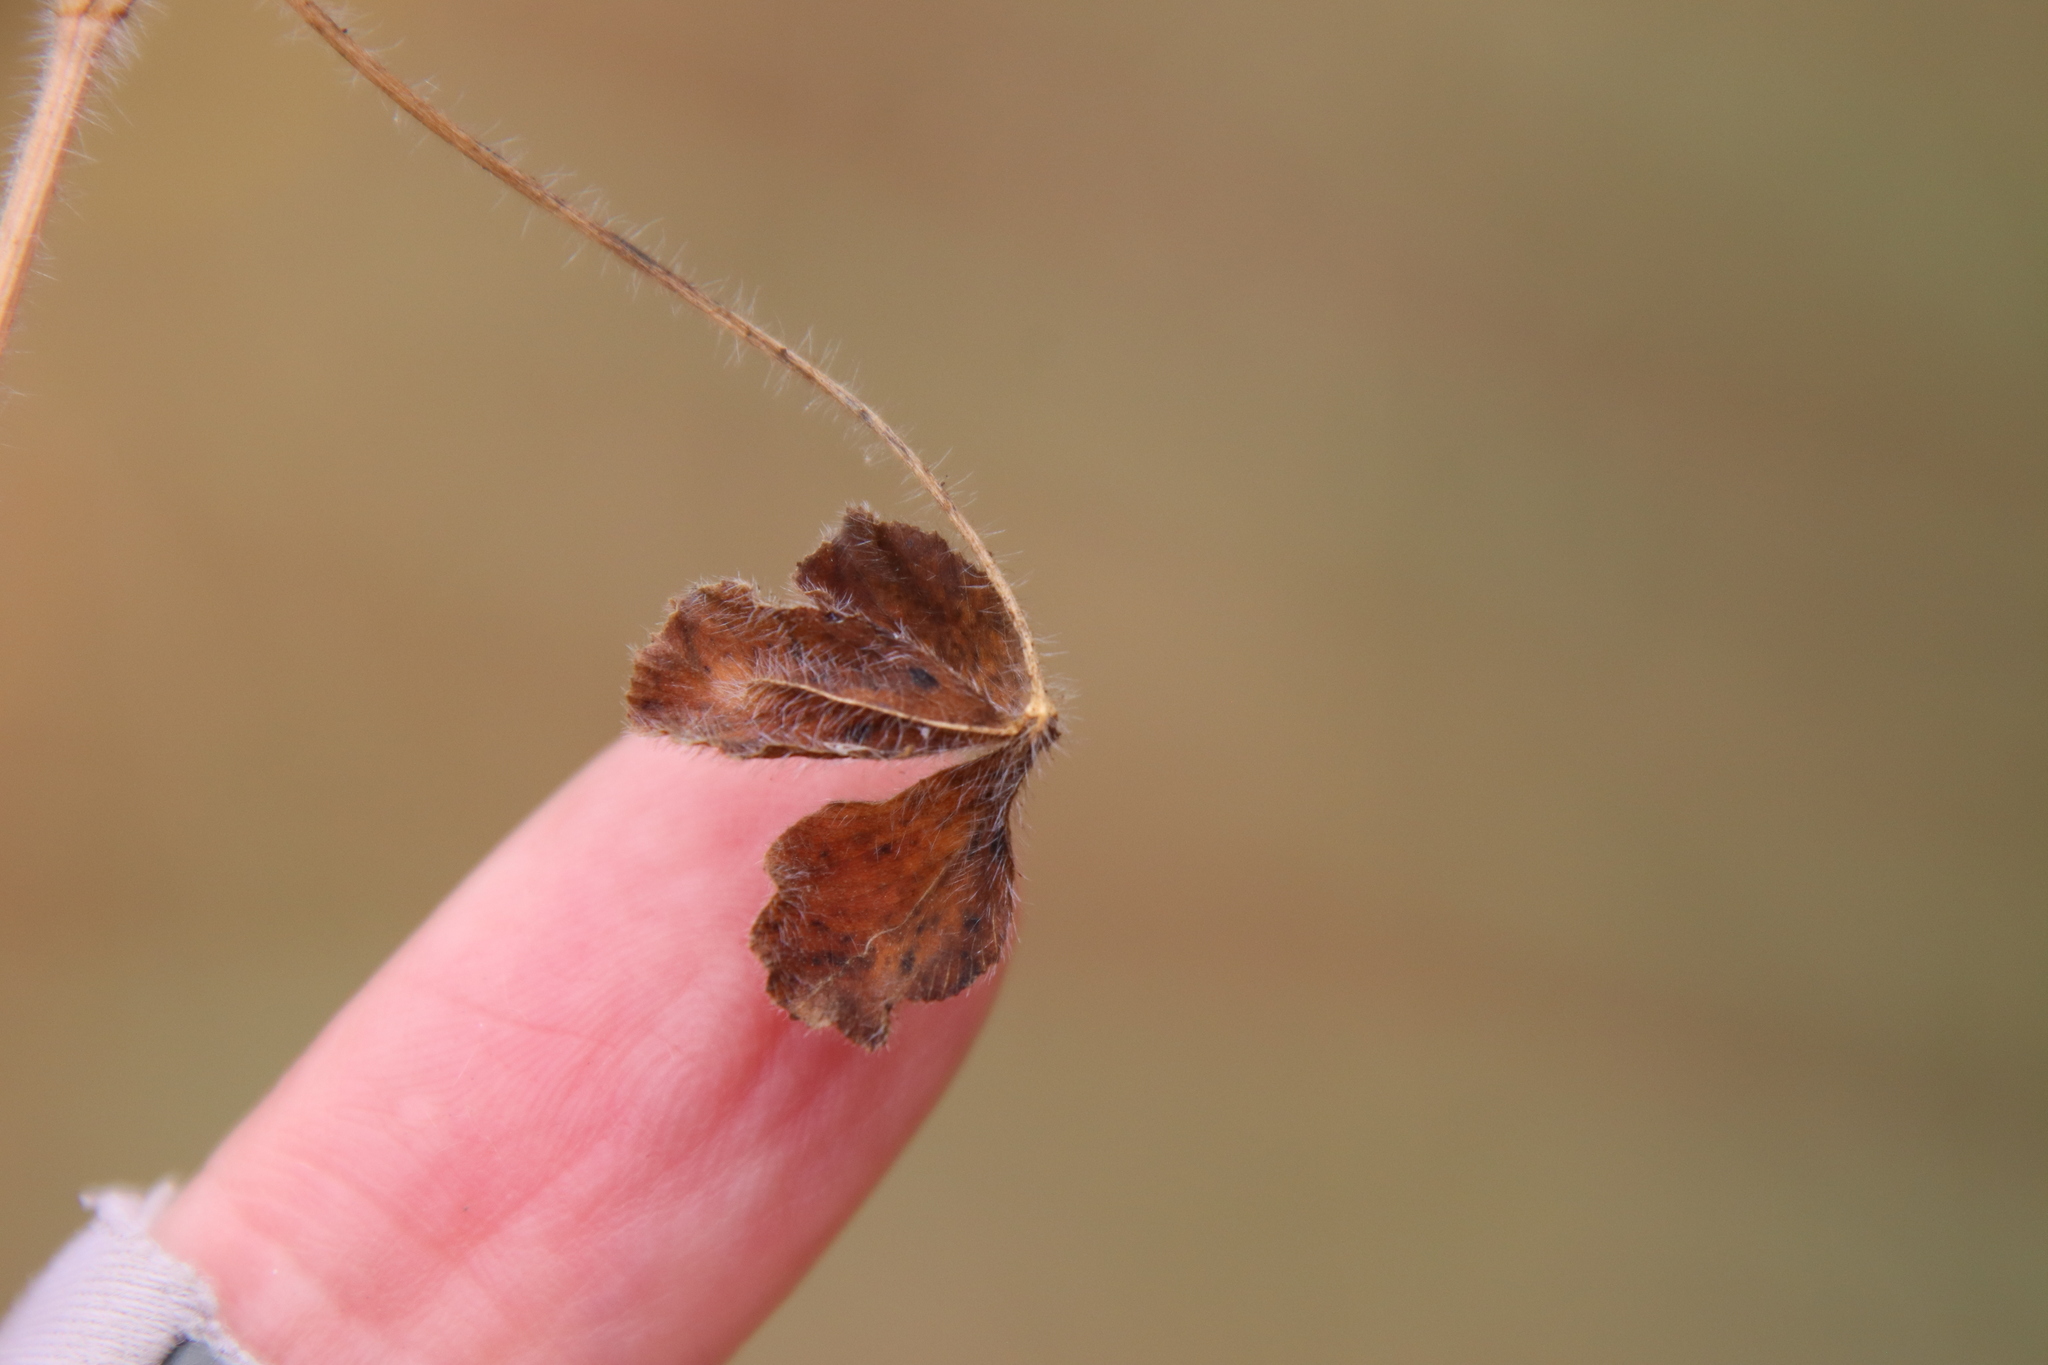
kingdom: Plantae
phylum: Tracheophyta
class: Magnoliopsida
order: Fabales
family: Fabaceae
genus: Trifolium
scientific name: Trifolium hirtum
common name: Rose clover
